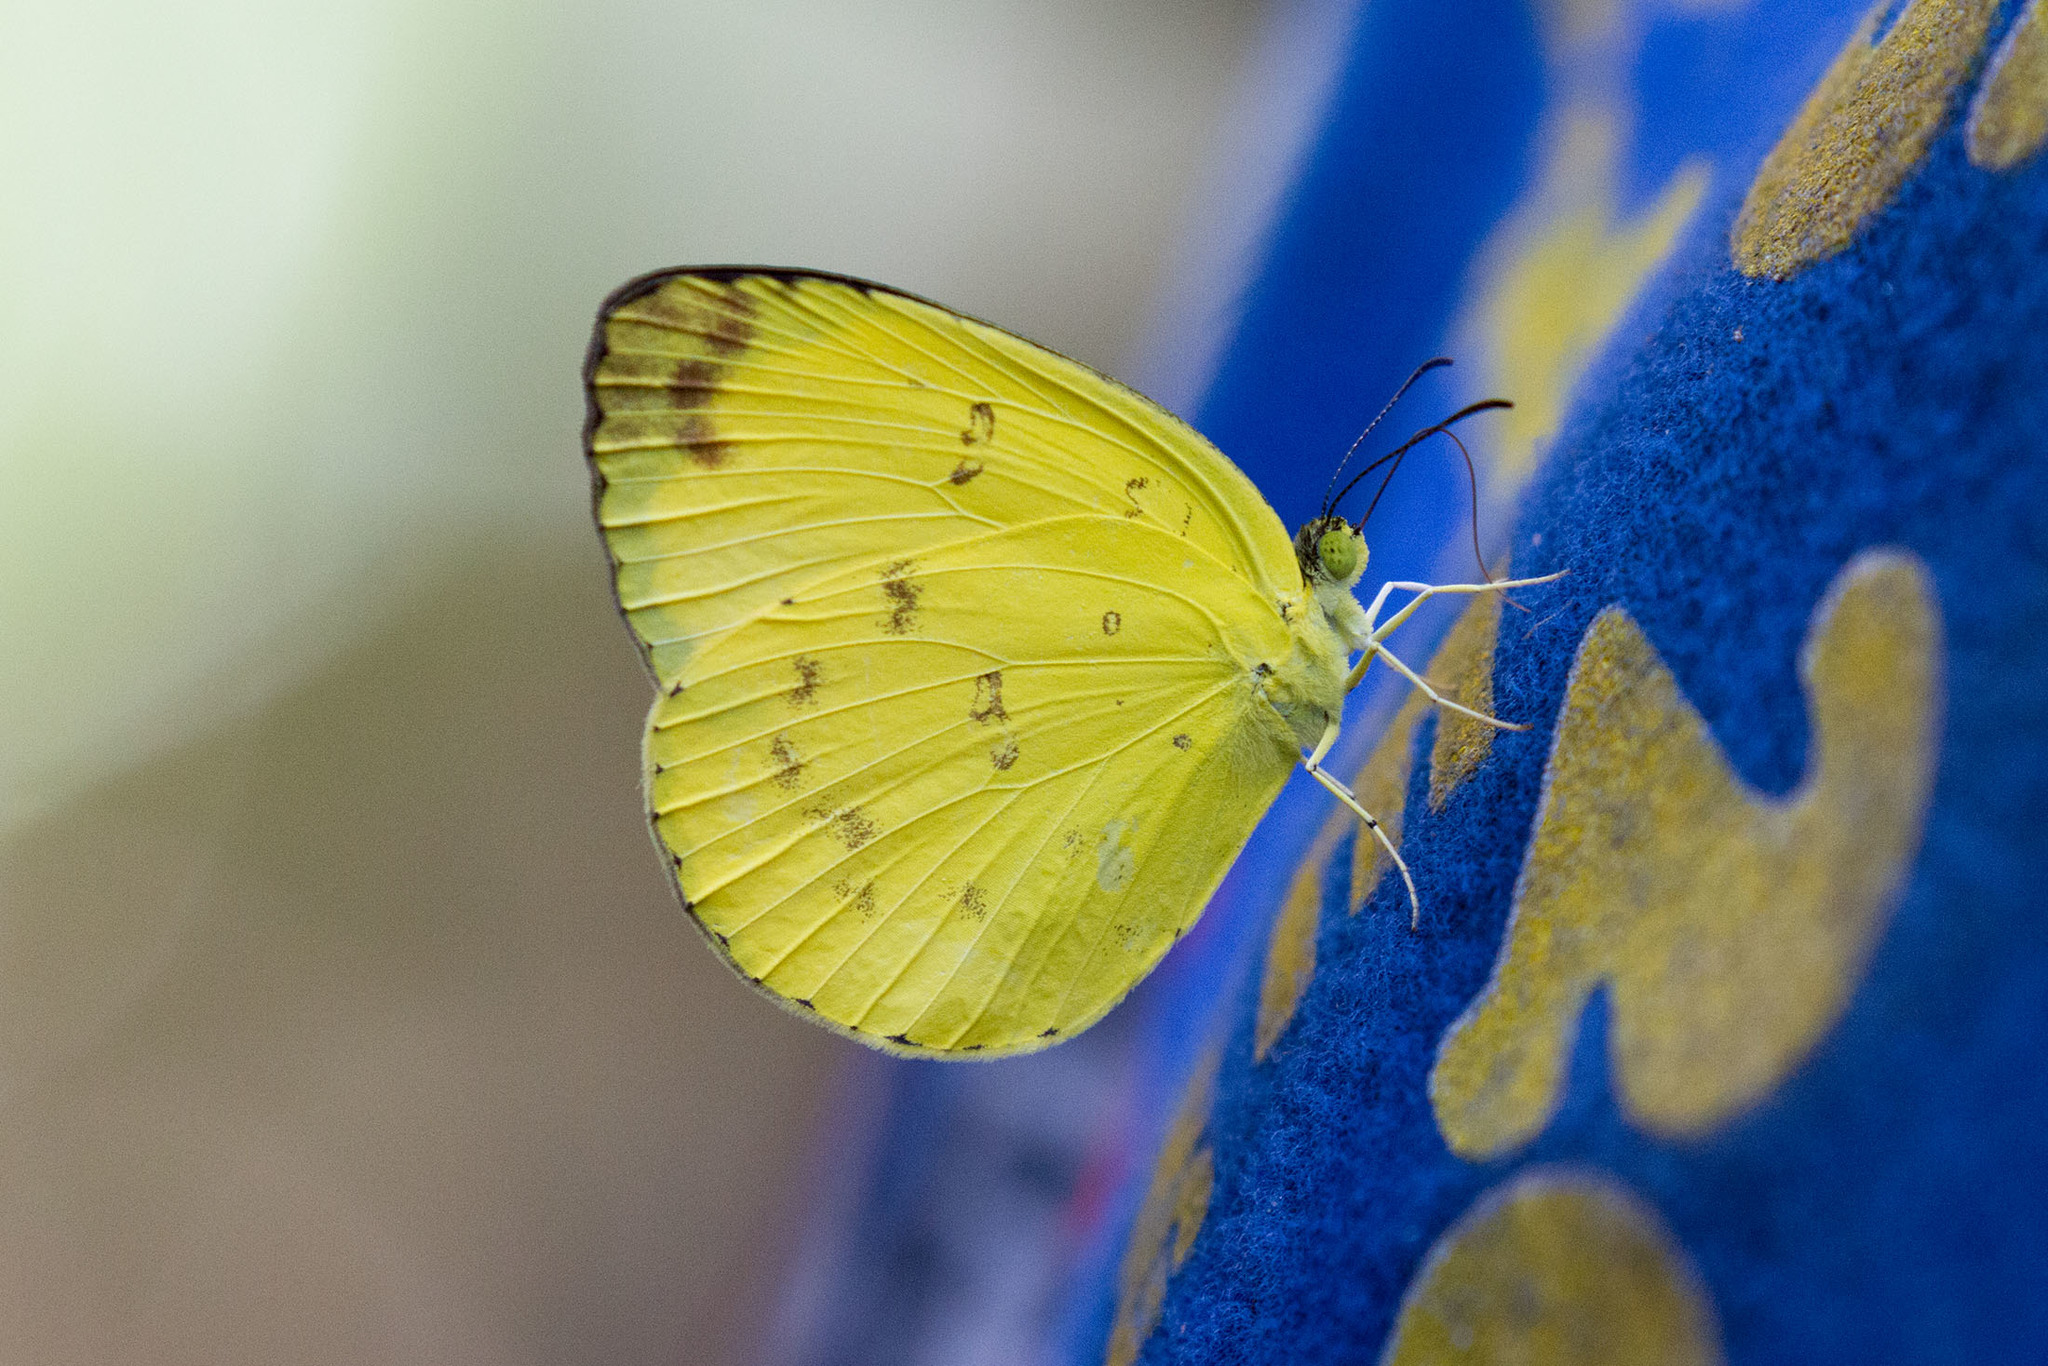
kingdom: Animalia
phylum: Arthropoda
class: Insecta
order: Lepidoptera
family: Pieridae
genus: Eurema
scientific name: Eurema blanda
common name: Three-spot grass yellow
